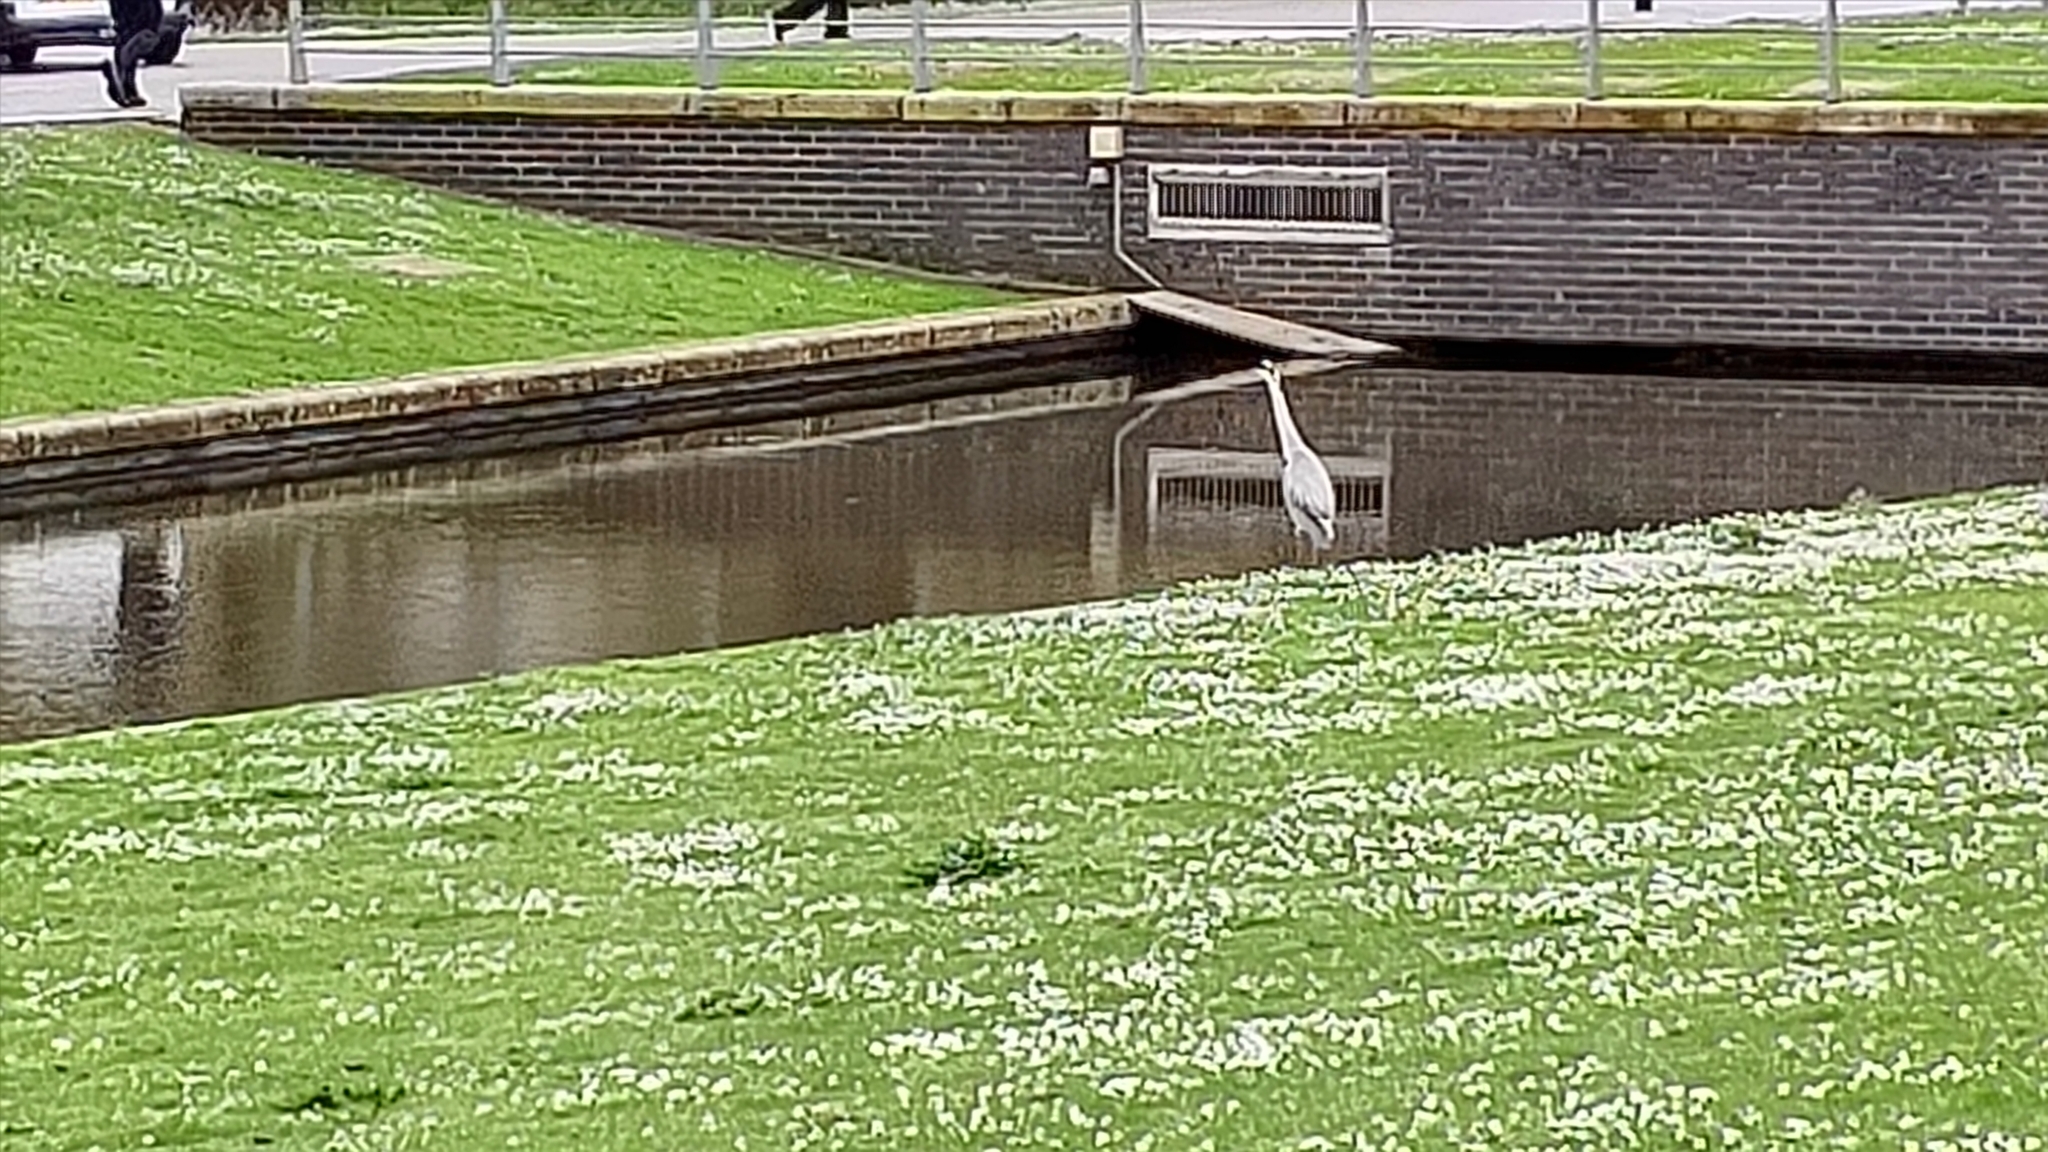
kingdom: Animalia
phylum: Chordata
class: Aves
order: Pelecaniformes
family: Ardeidae
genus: Ardea
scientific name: Ardea cinerea
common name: Grey heron
